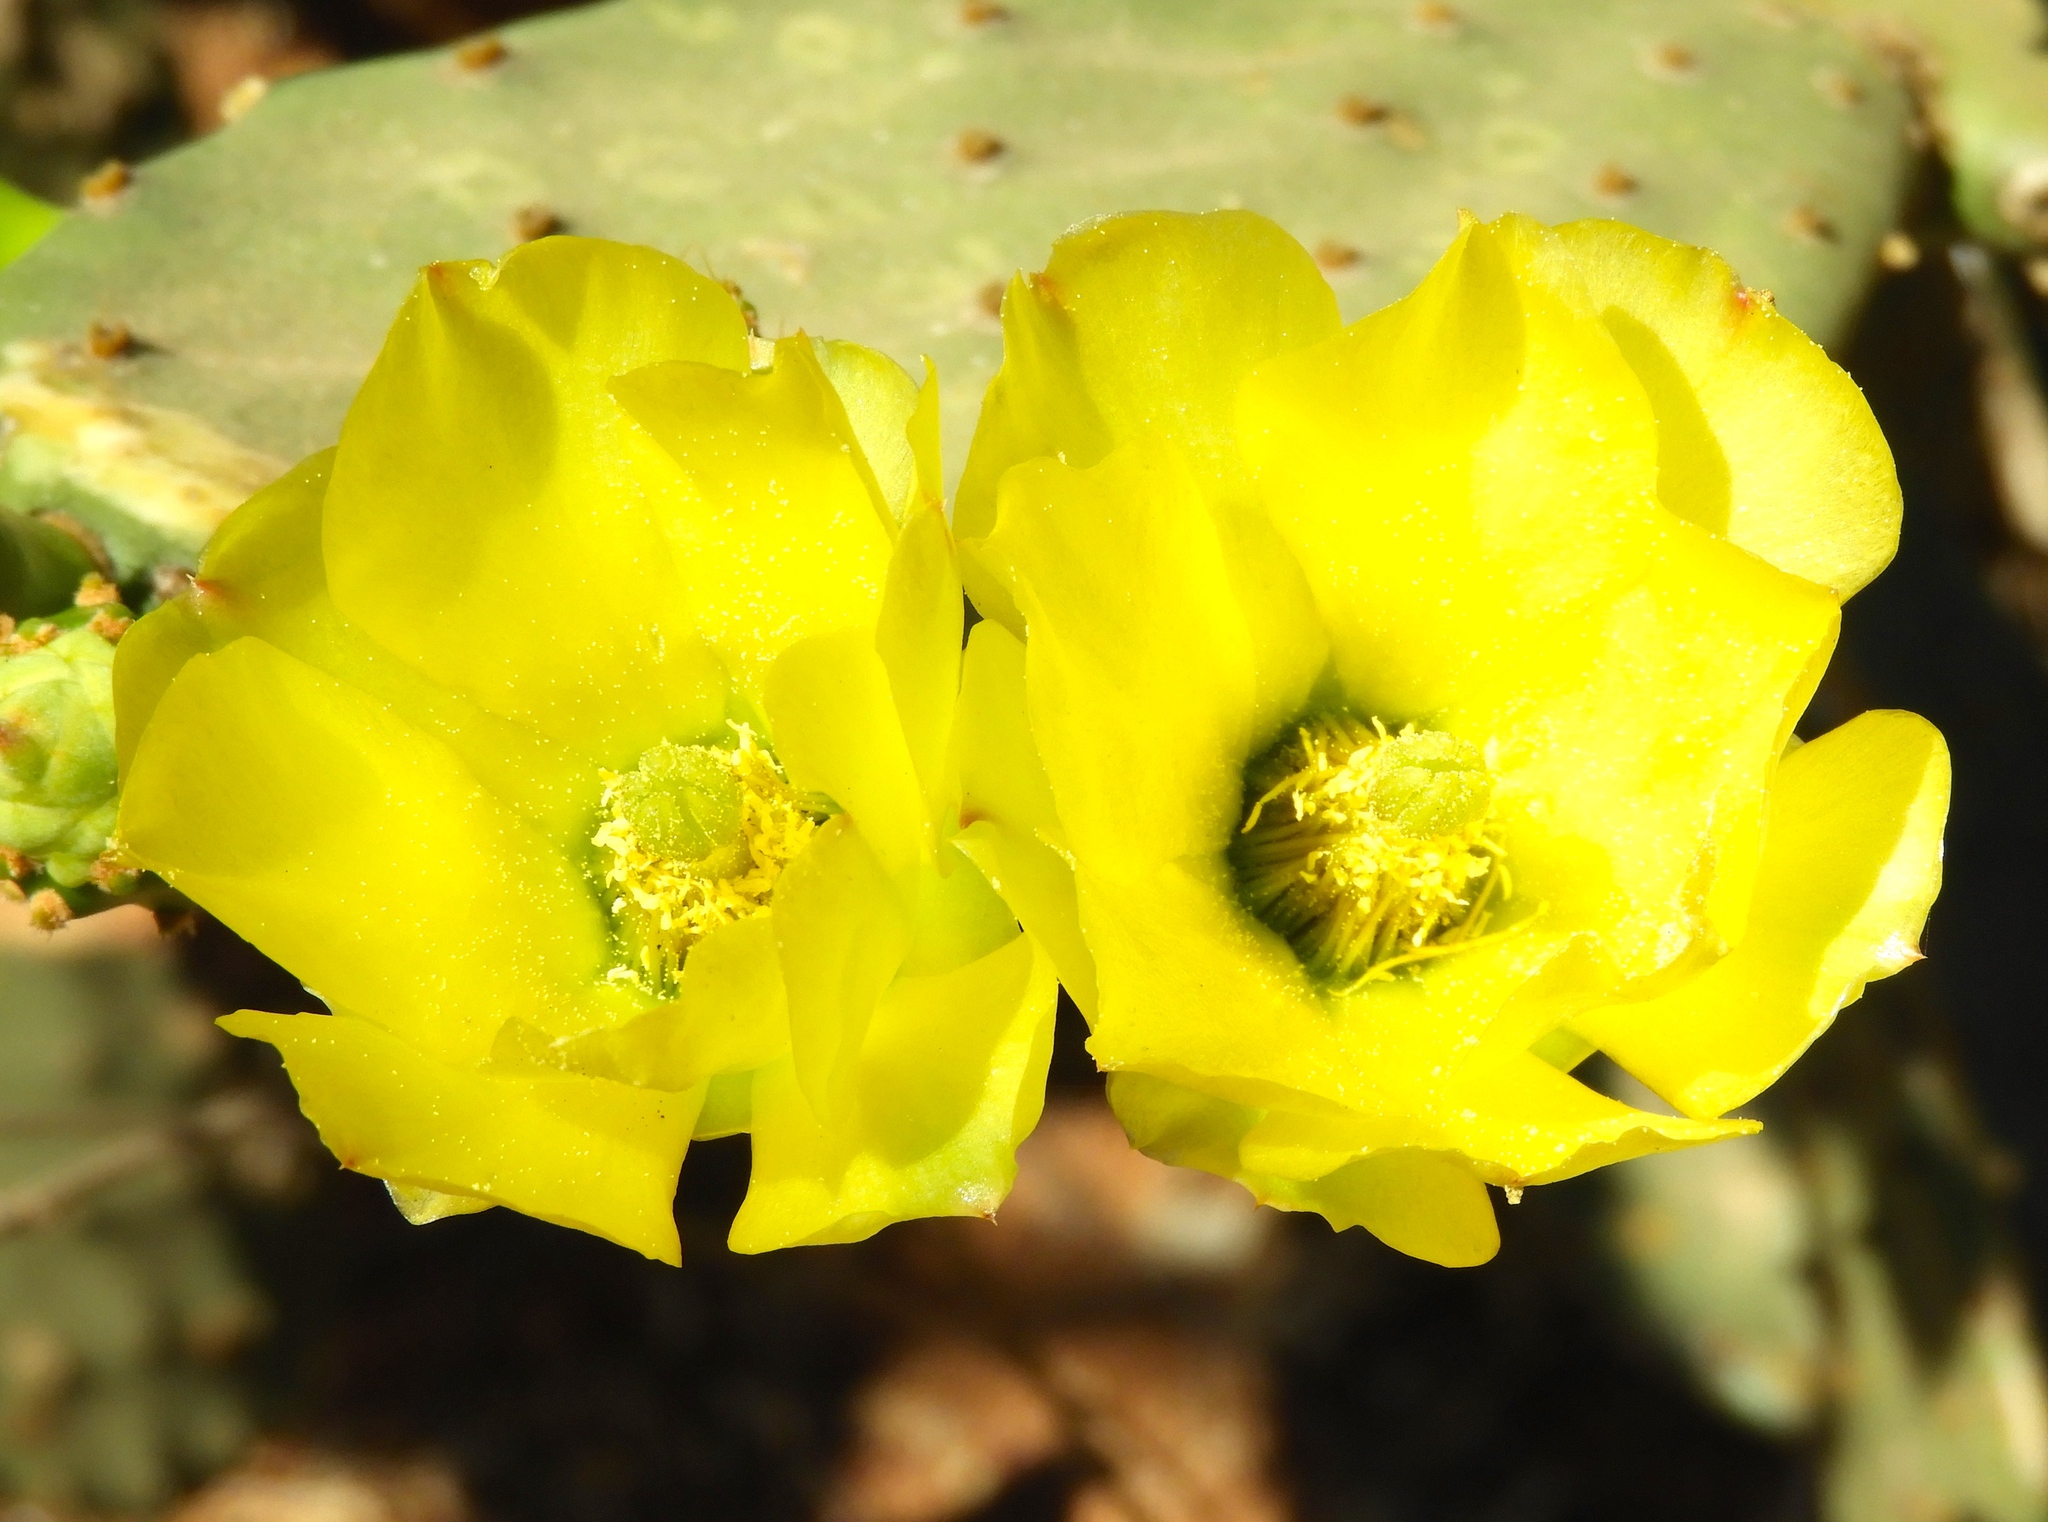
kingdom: Plantae
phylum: Tracheophyta
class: Magnoliopsida
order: Caryophyllales
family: Cactaceae
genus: Opuntia
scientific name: Opuntia
